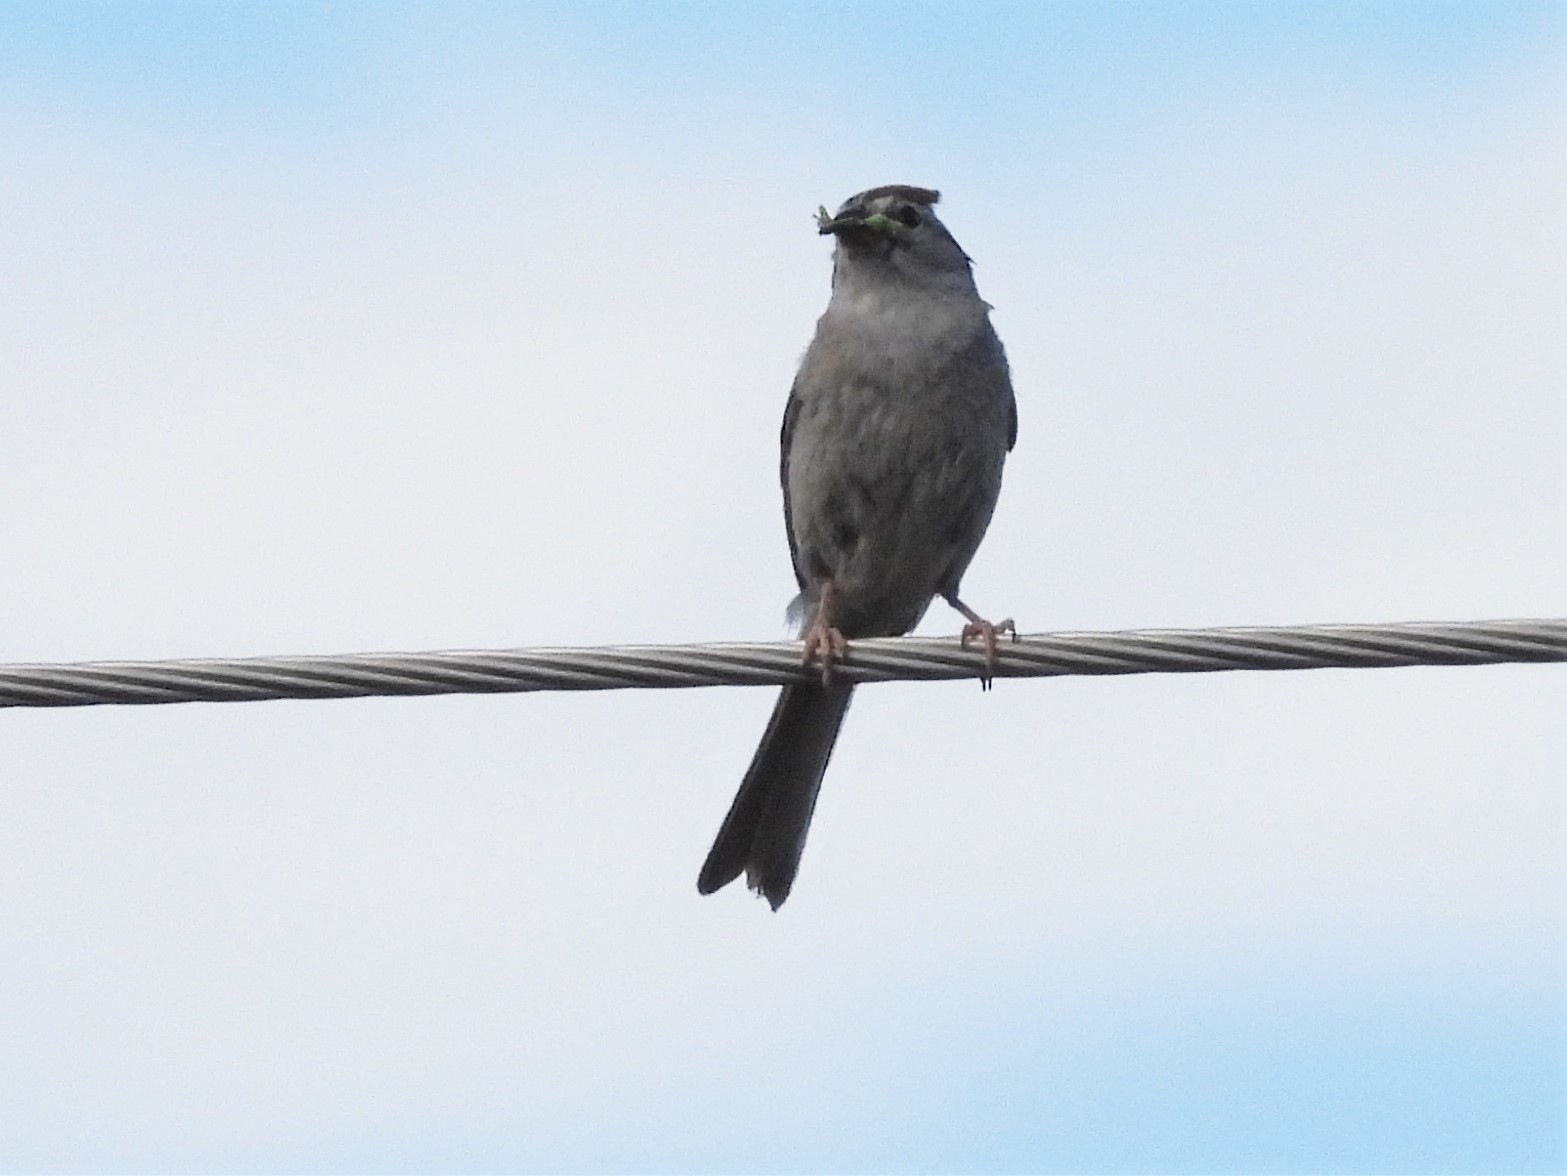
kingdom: Animalia
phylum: Chordata
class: Aves
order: Passeriformes
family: Paridae
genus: Baeolophus
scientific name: Baeolophus ridgwayi
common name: Juniper titmouse
